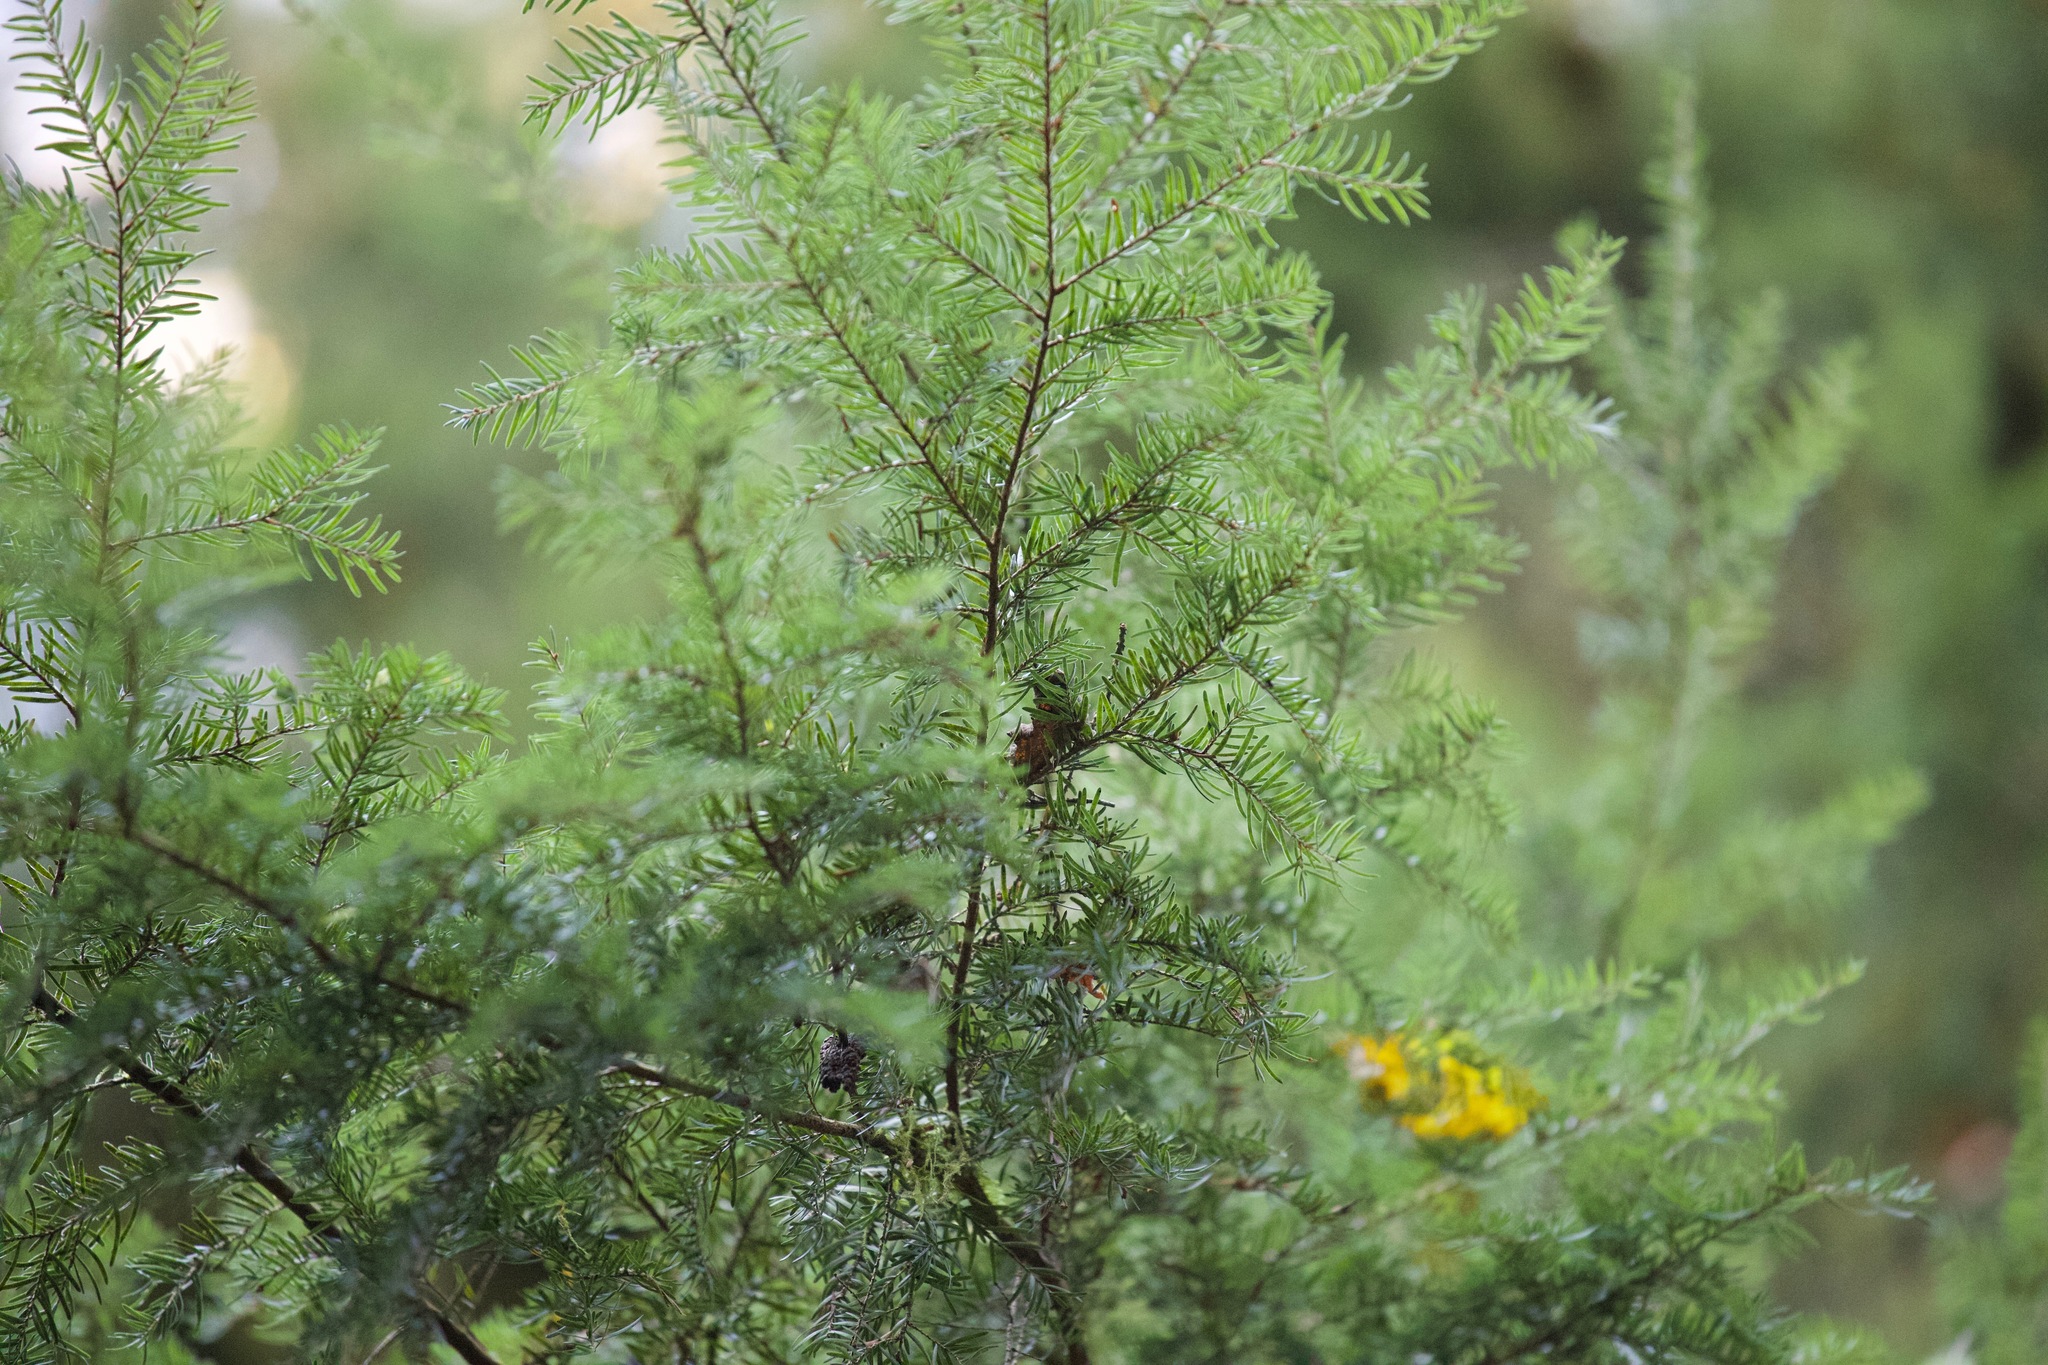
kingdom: Plantae
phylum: Tracheophyta
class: Pinopsida
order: Pinales
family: Pinaceae
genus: Tsuga
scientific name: Tsuga heterophylla
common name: Western hemlock
